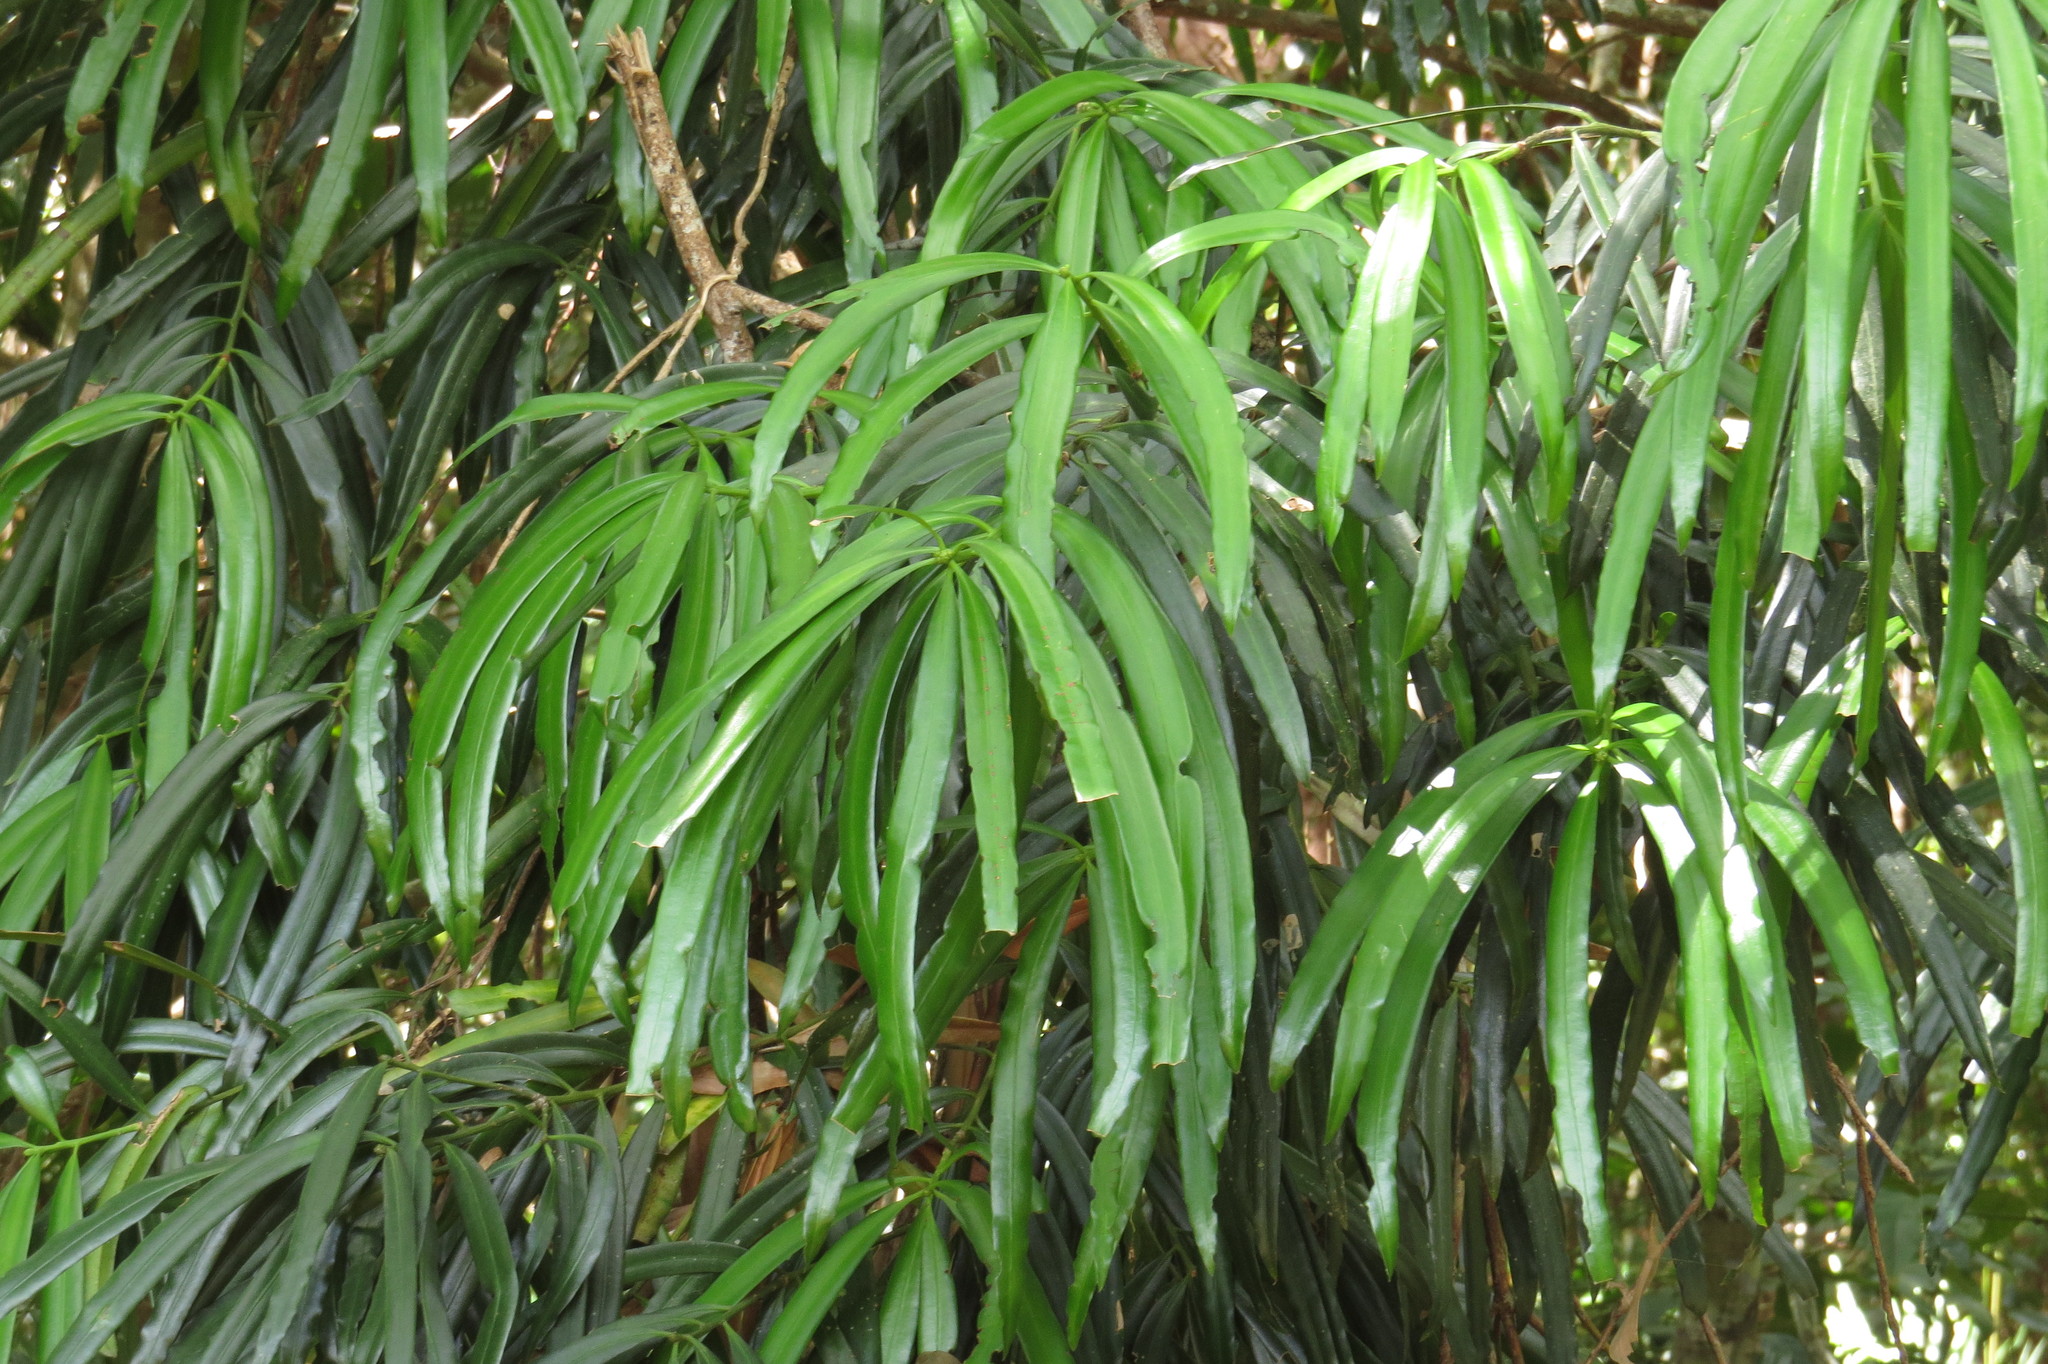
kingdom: Plantae
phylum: Tracheophyta
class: Pinopsida
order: Pinales
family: Podocarpaceae
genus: Podocarpus
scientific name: Podocarpus grayae
